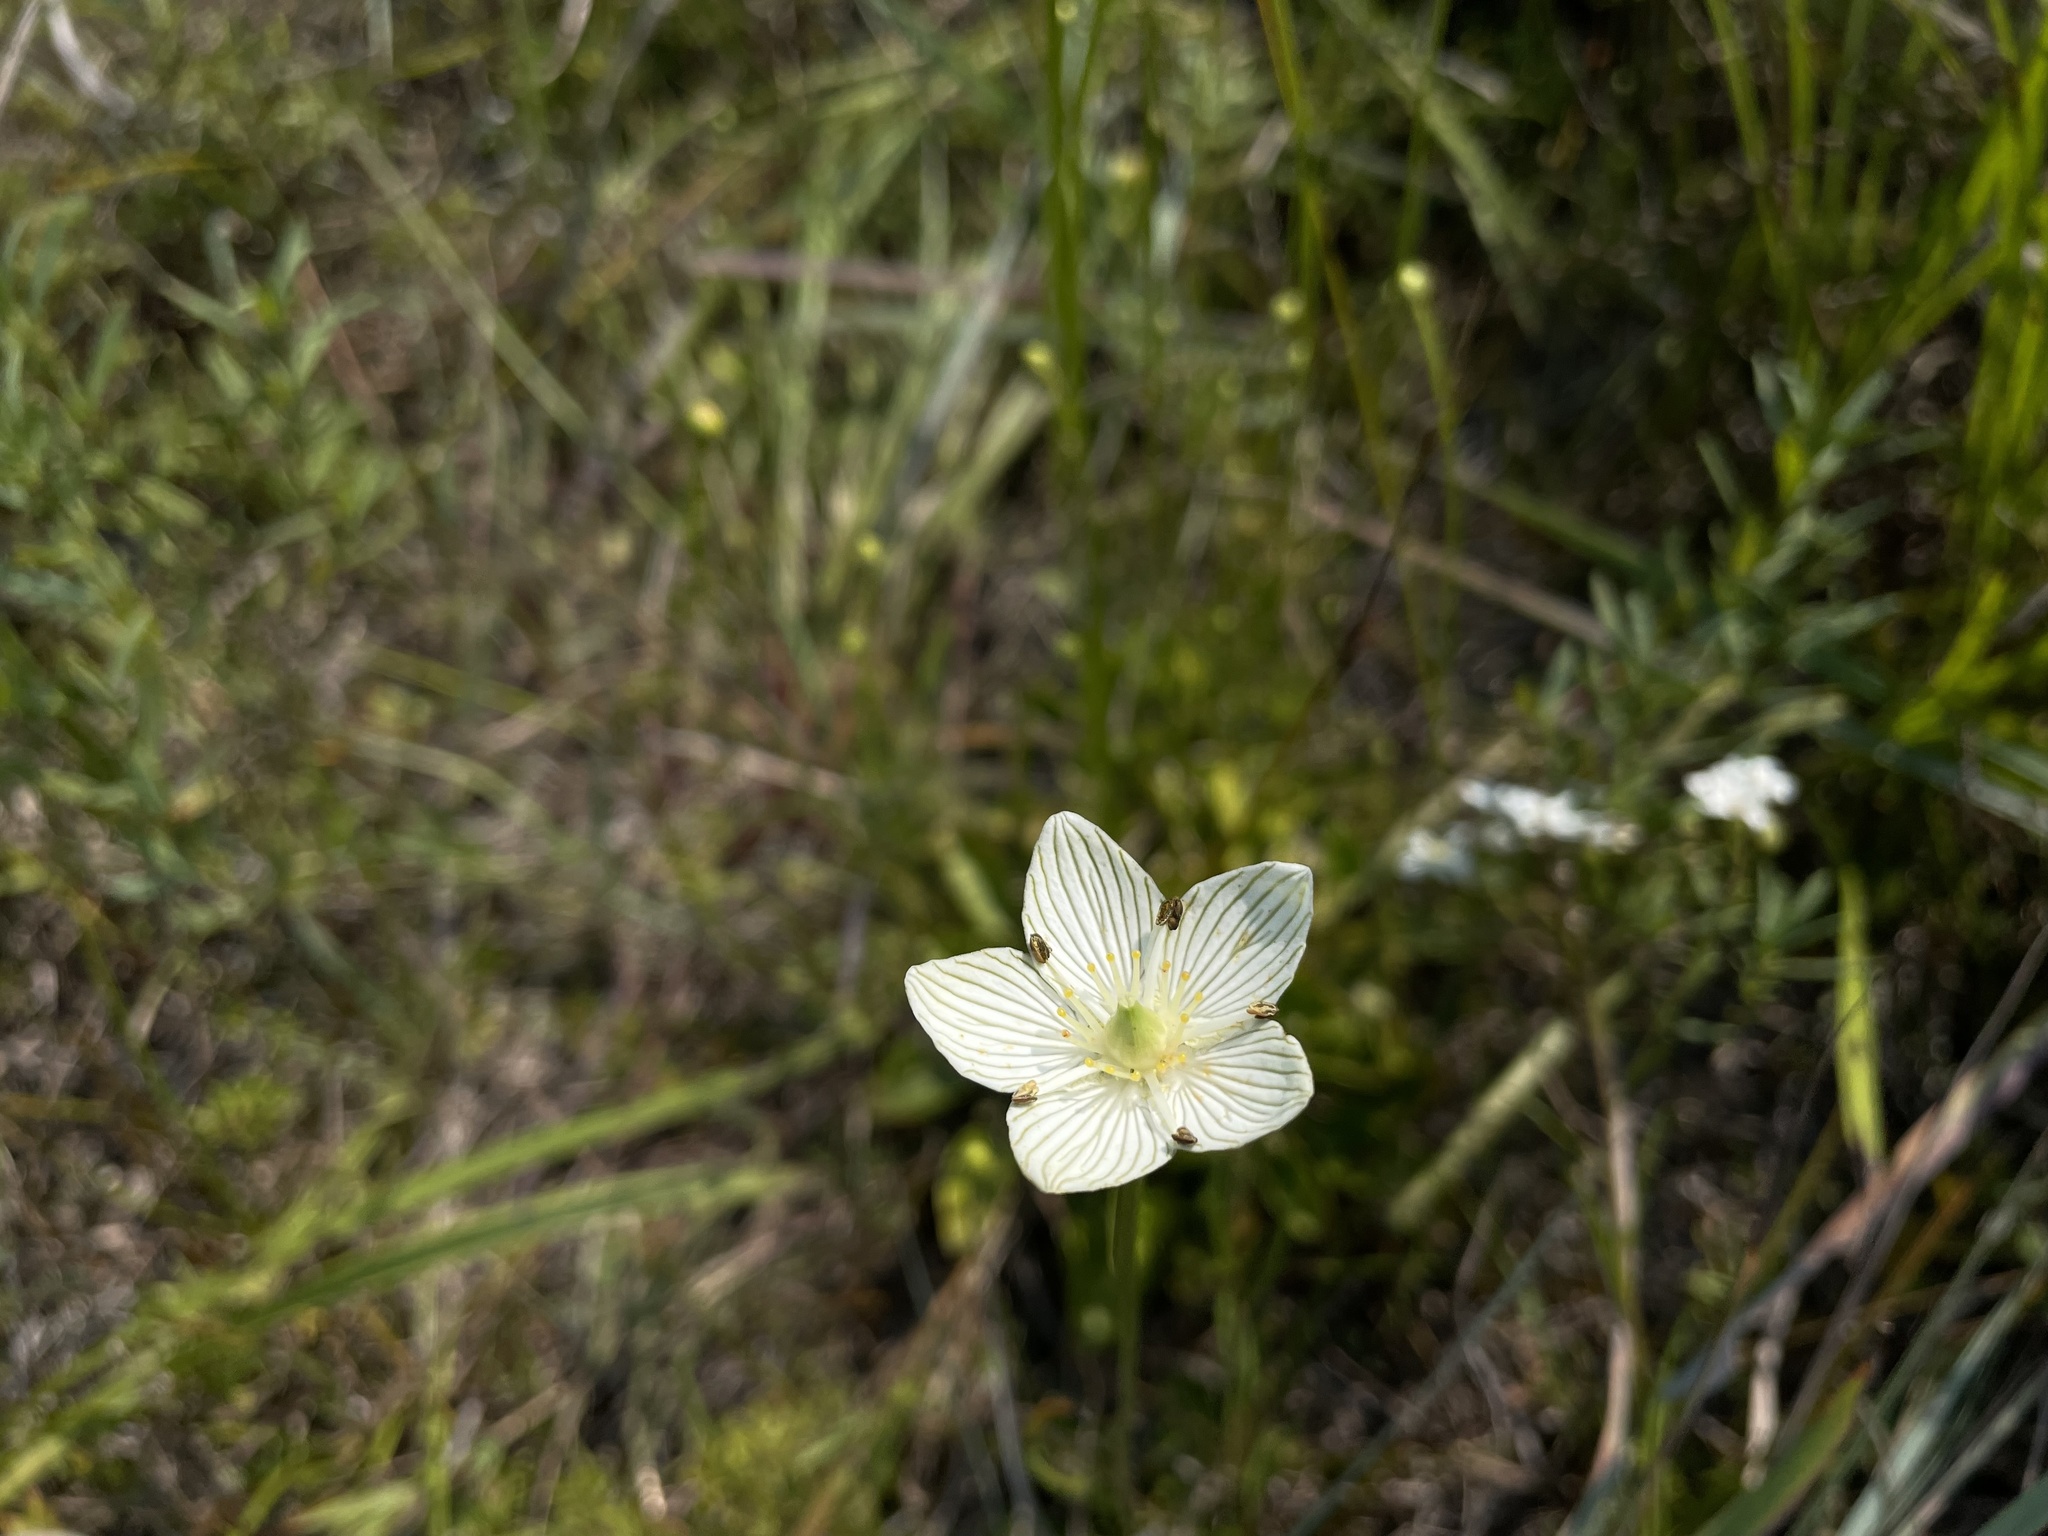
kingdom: Plantae
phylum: Tracheophyta
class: Magnoliopsida
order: Celastrales
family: Parnassiaceae
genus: Parnassia
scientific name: Parnassia glauca
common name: American grass-of-parnassus
